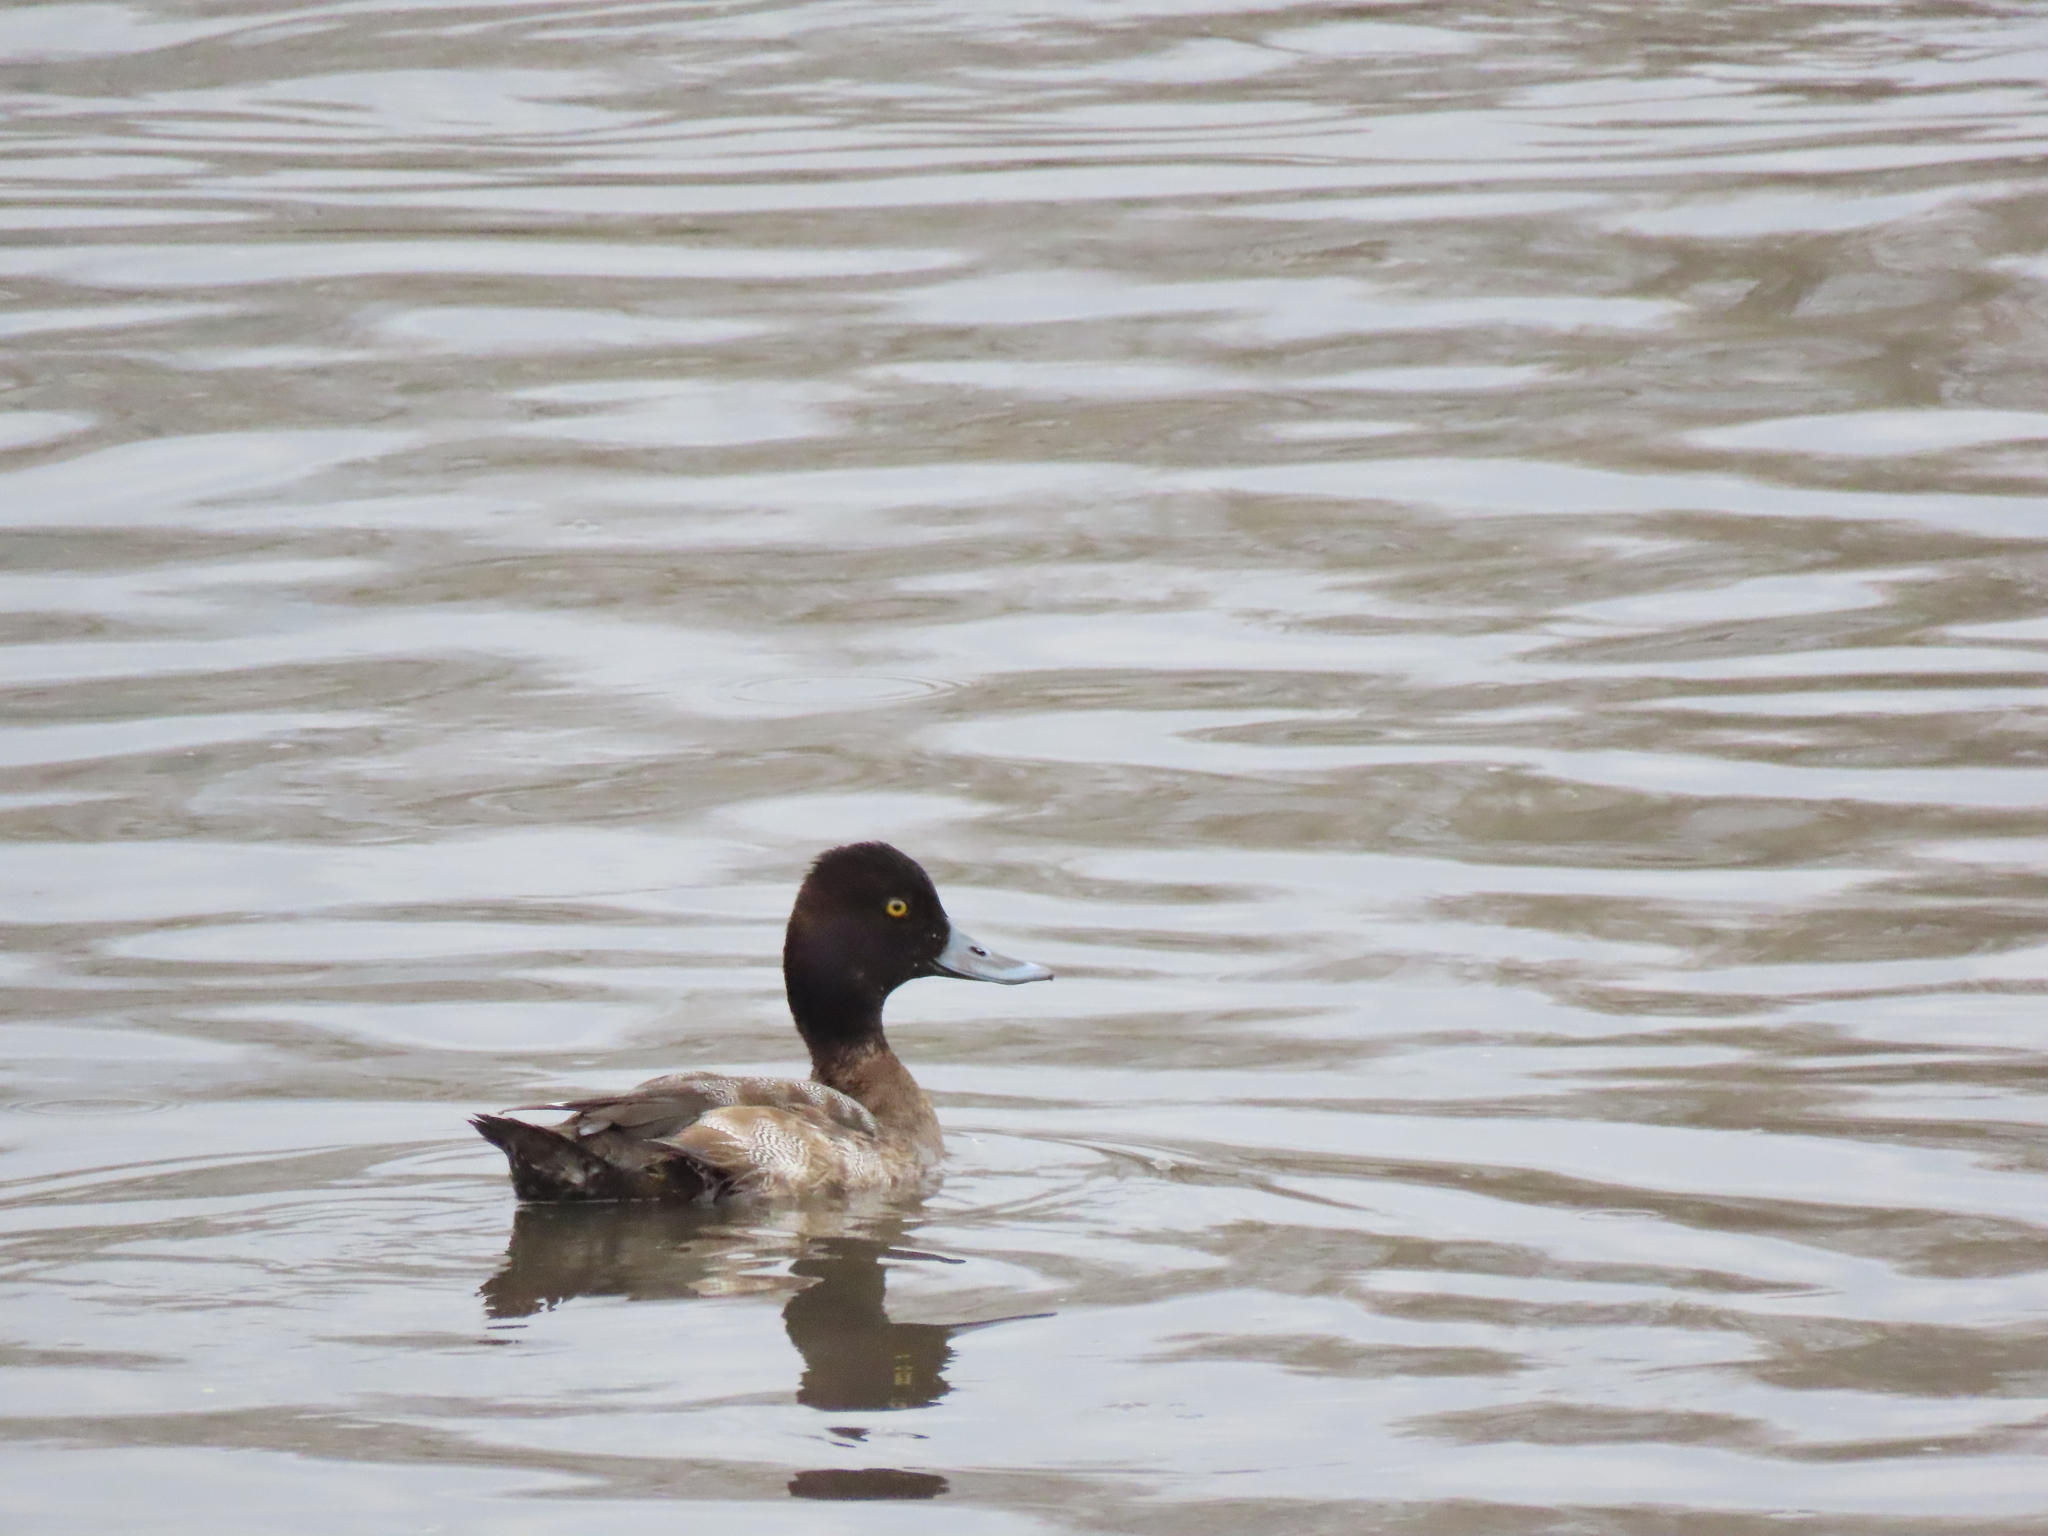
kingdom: Animalia
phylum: Chordata
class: Aves
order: Anseriformes
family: Anatidae
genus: Aythya
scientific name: Aythya affinis
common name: Lesser scaup
